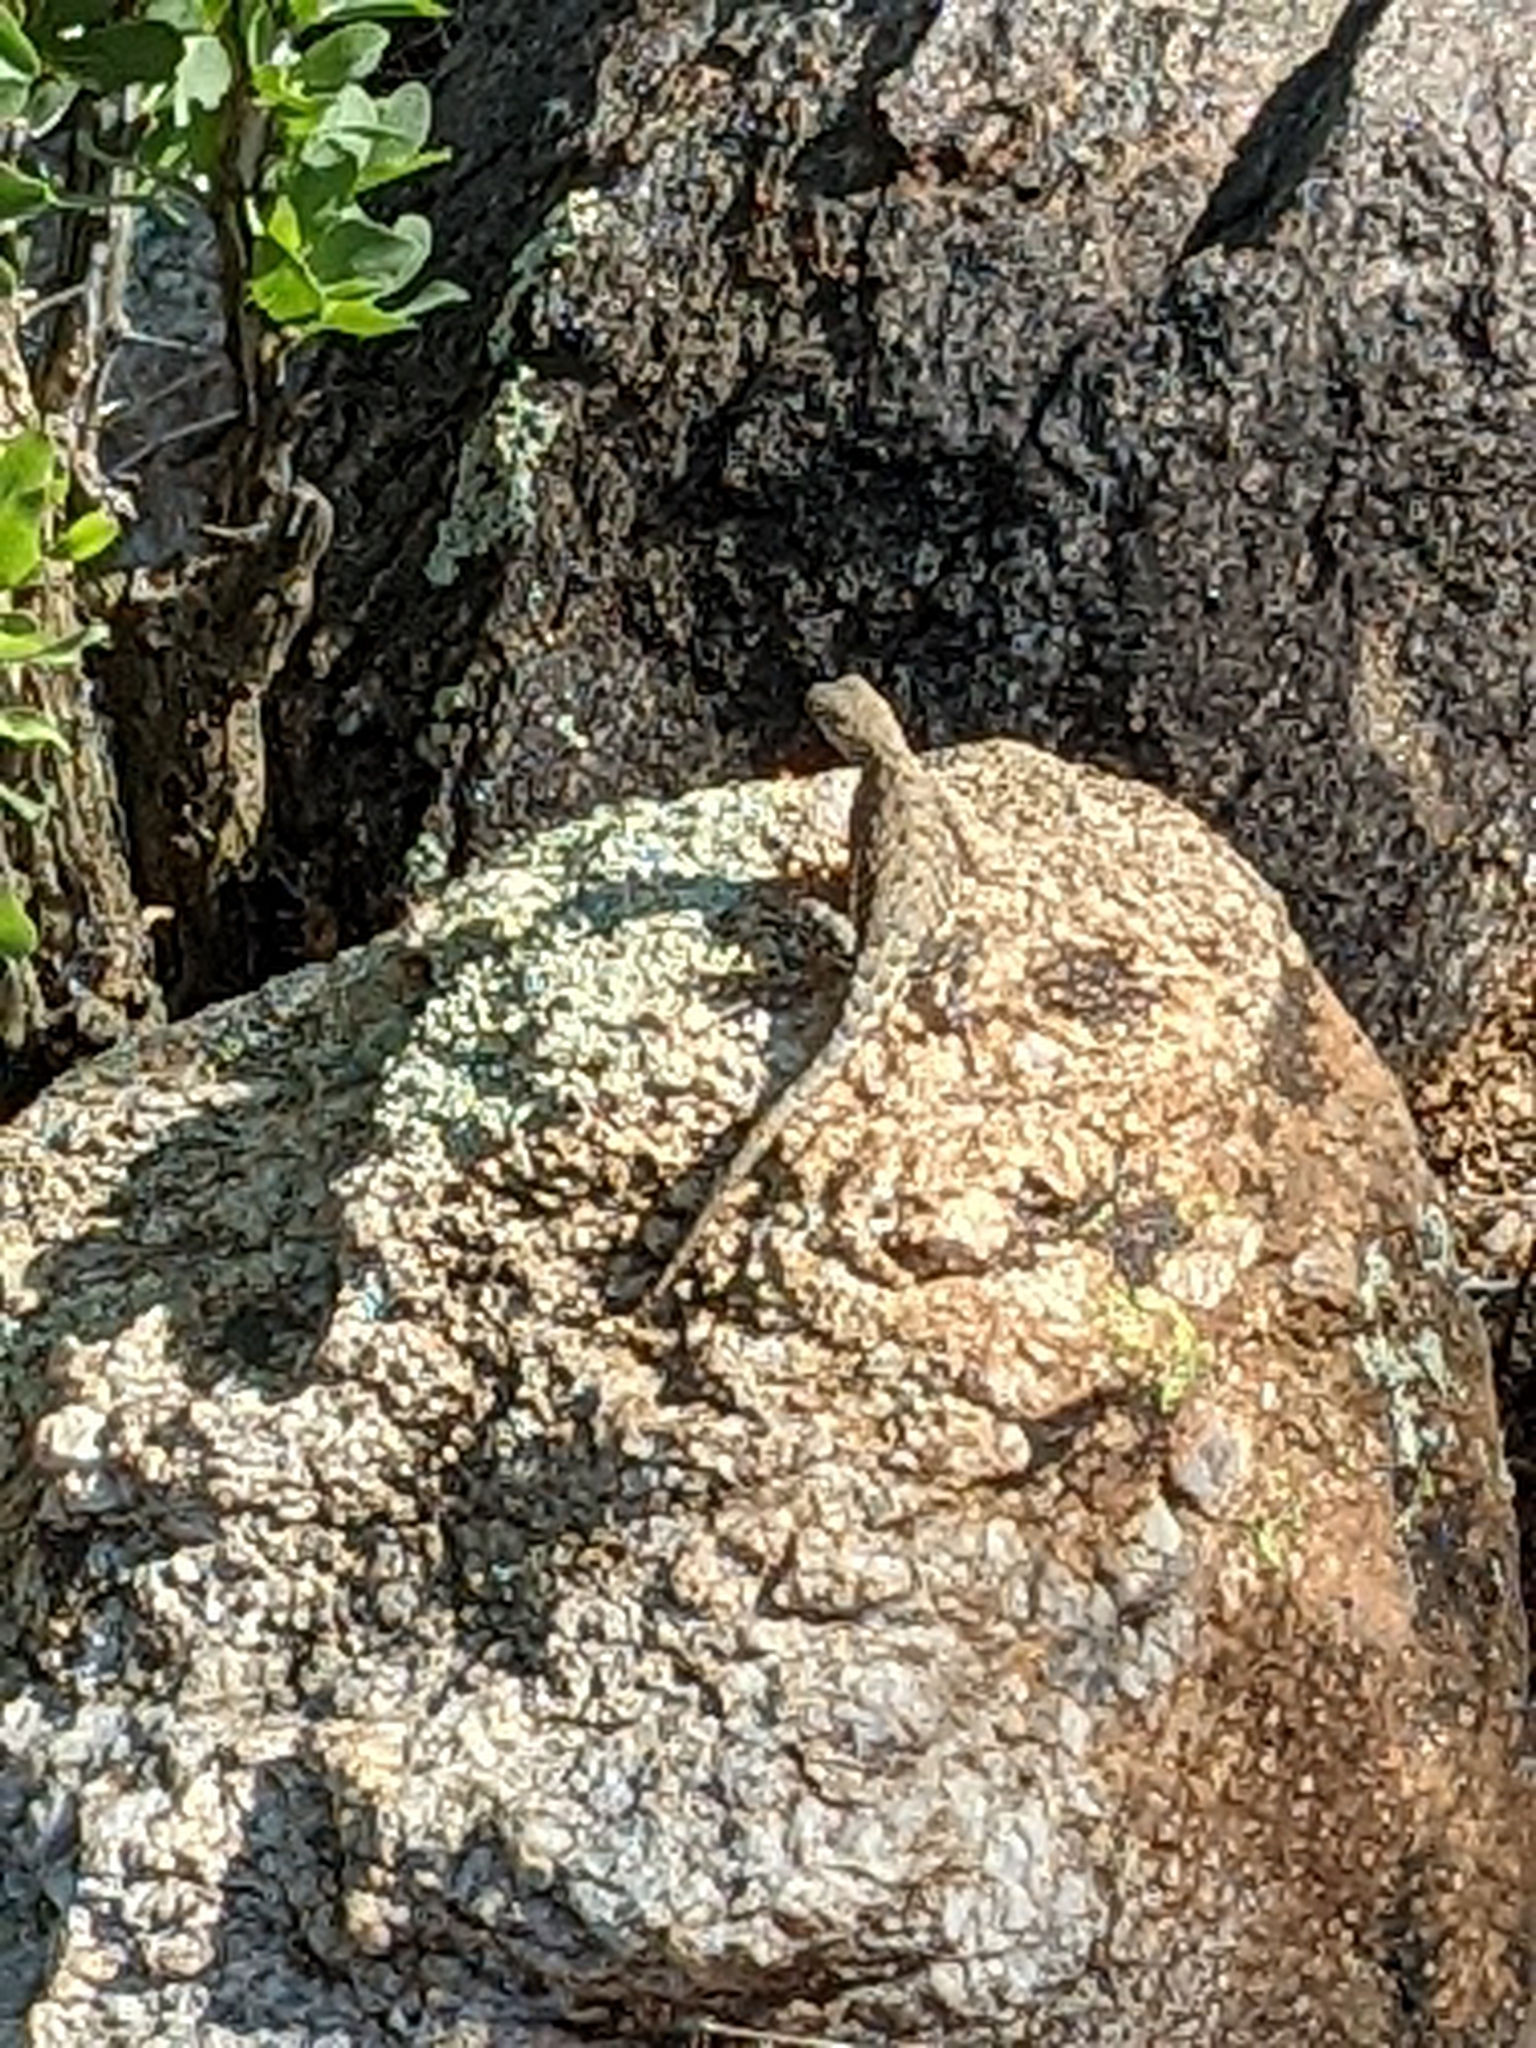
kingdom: Animalia
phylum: Chordata
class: Squamata
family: Phrynosomatidae
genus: Cophosaurus
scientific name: Cophosaurus texanus
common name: Greater earless lizard
